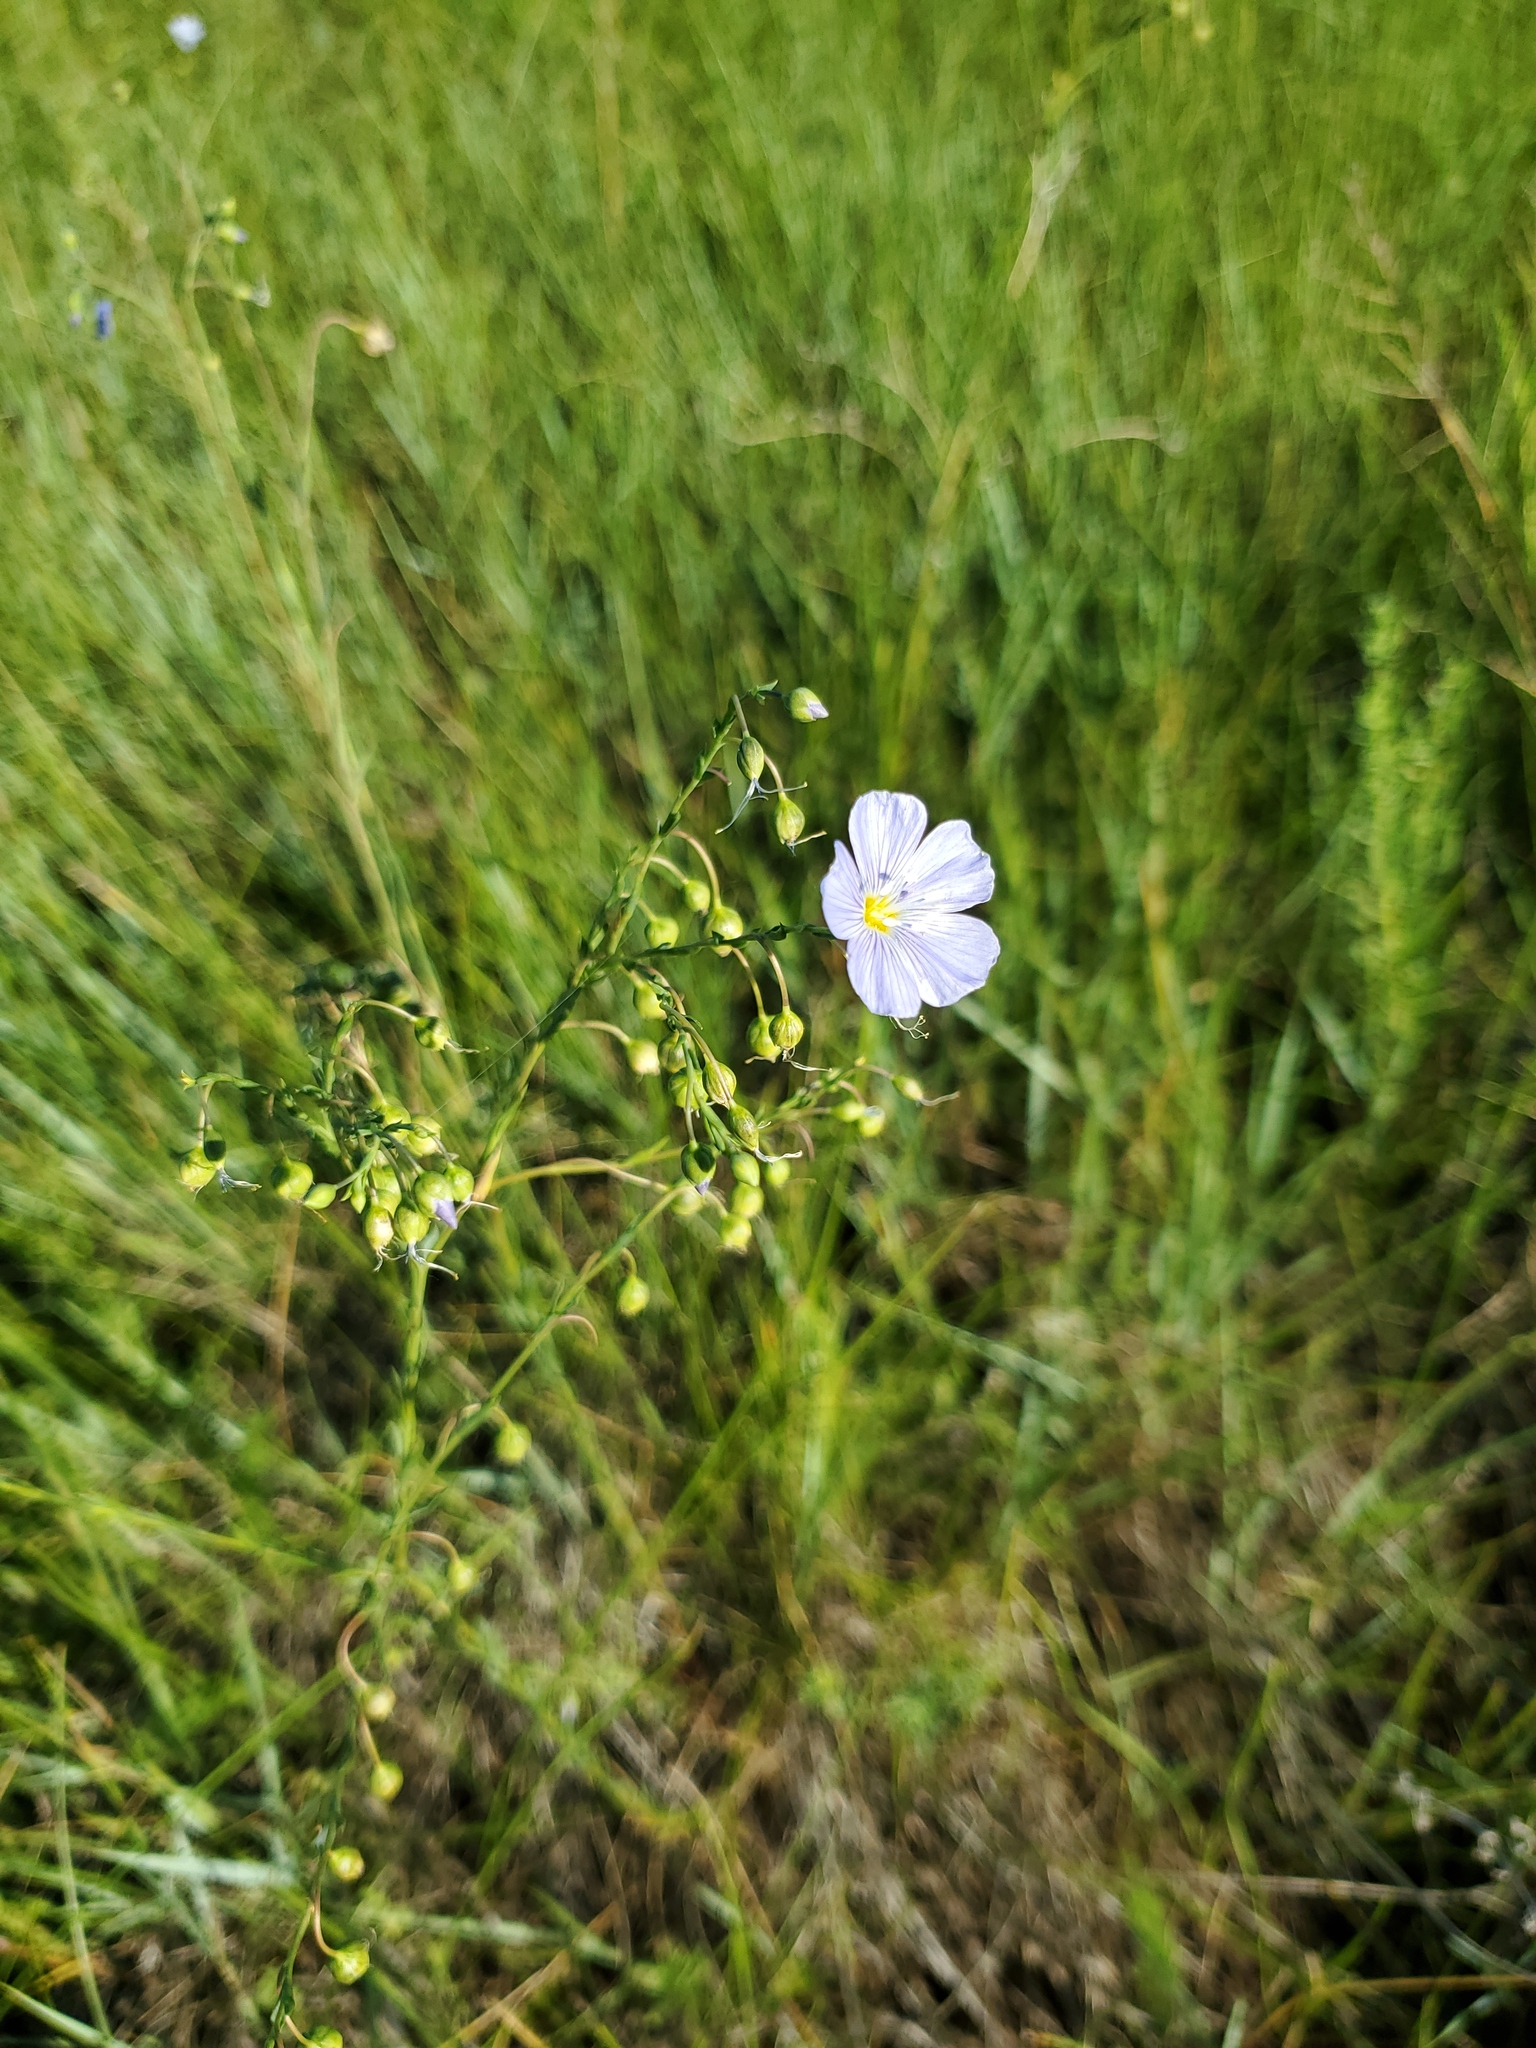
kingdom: Plantae
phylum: Tracheophyta
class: Magnoliopsida
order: Malpighiales
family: Linaceae
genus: Linum
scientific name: Linum lewisii
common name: Prairie flax
